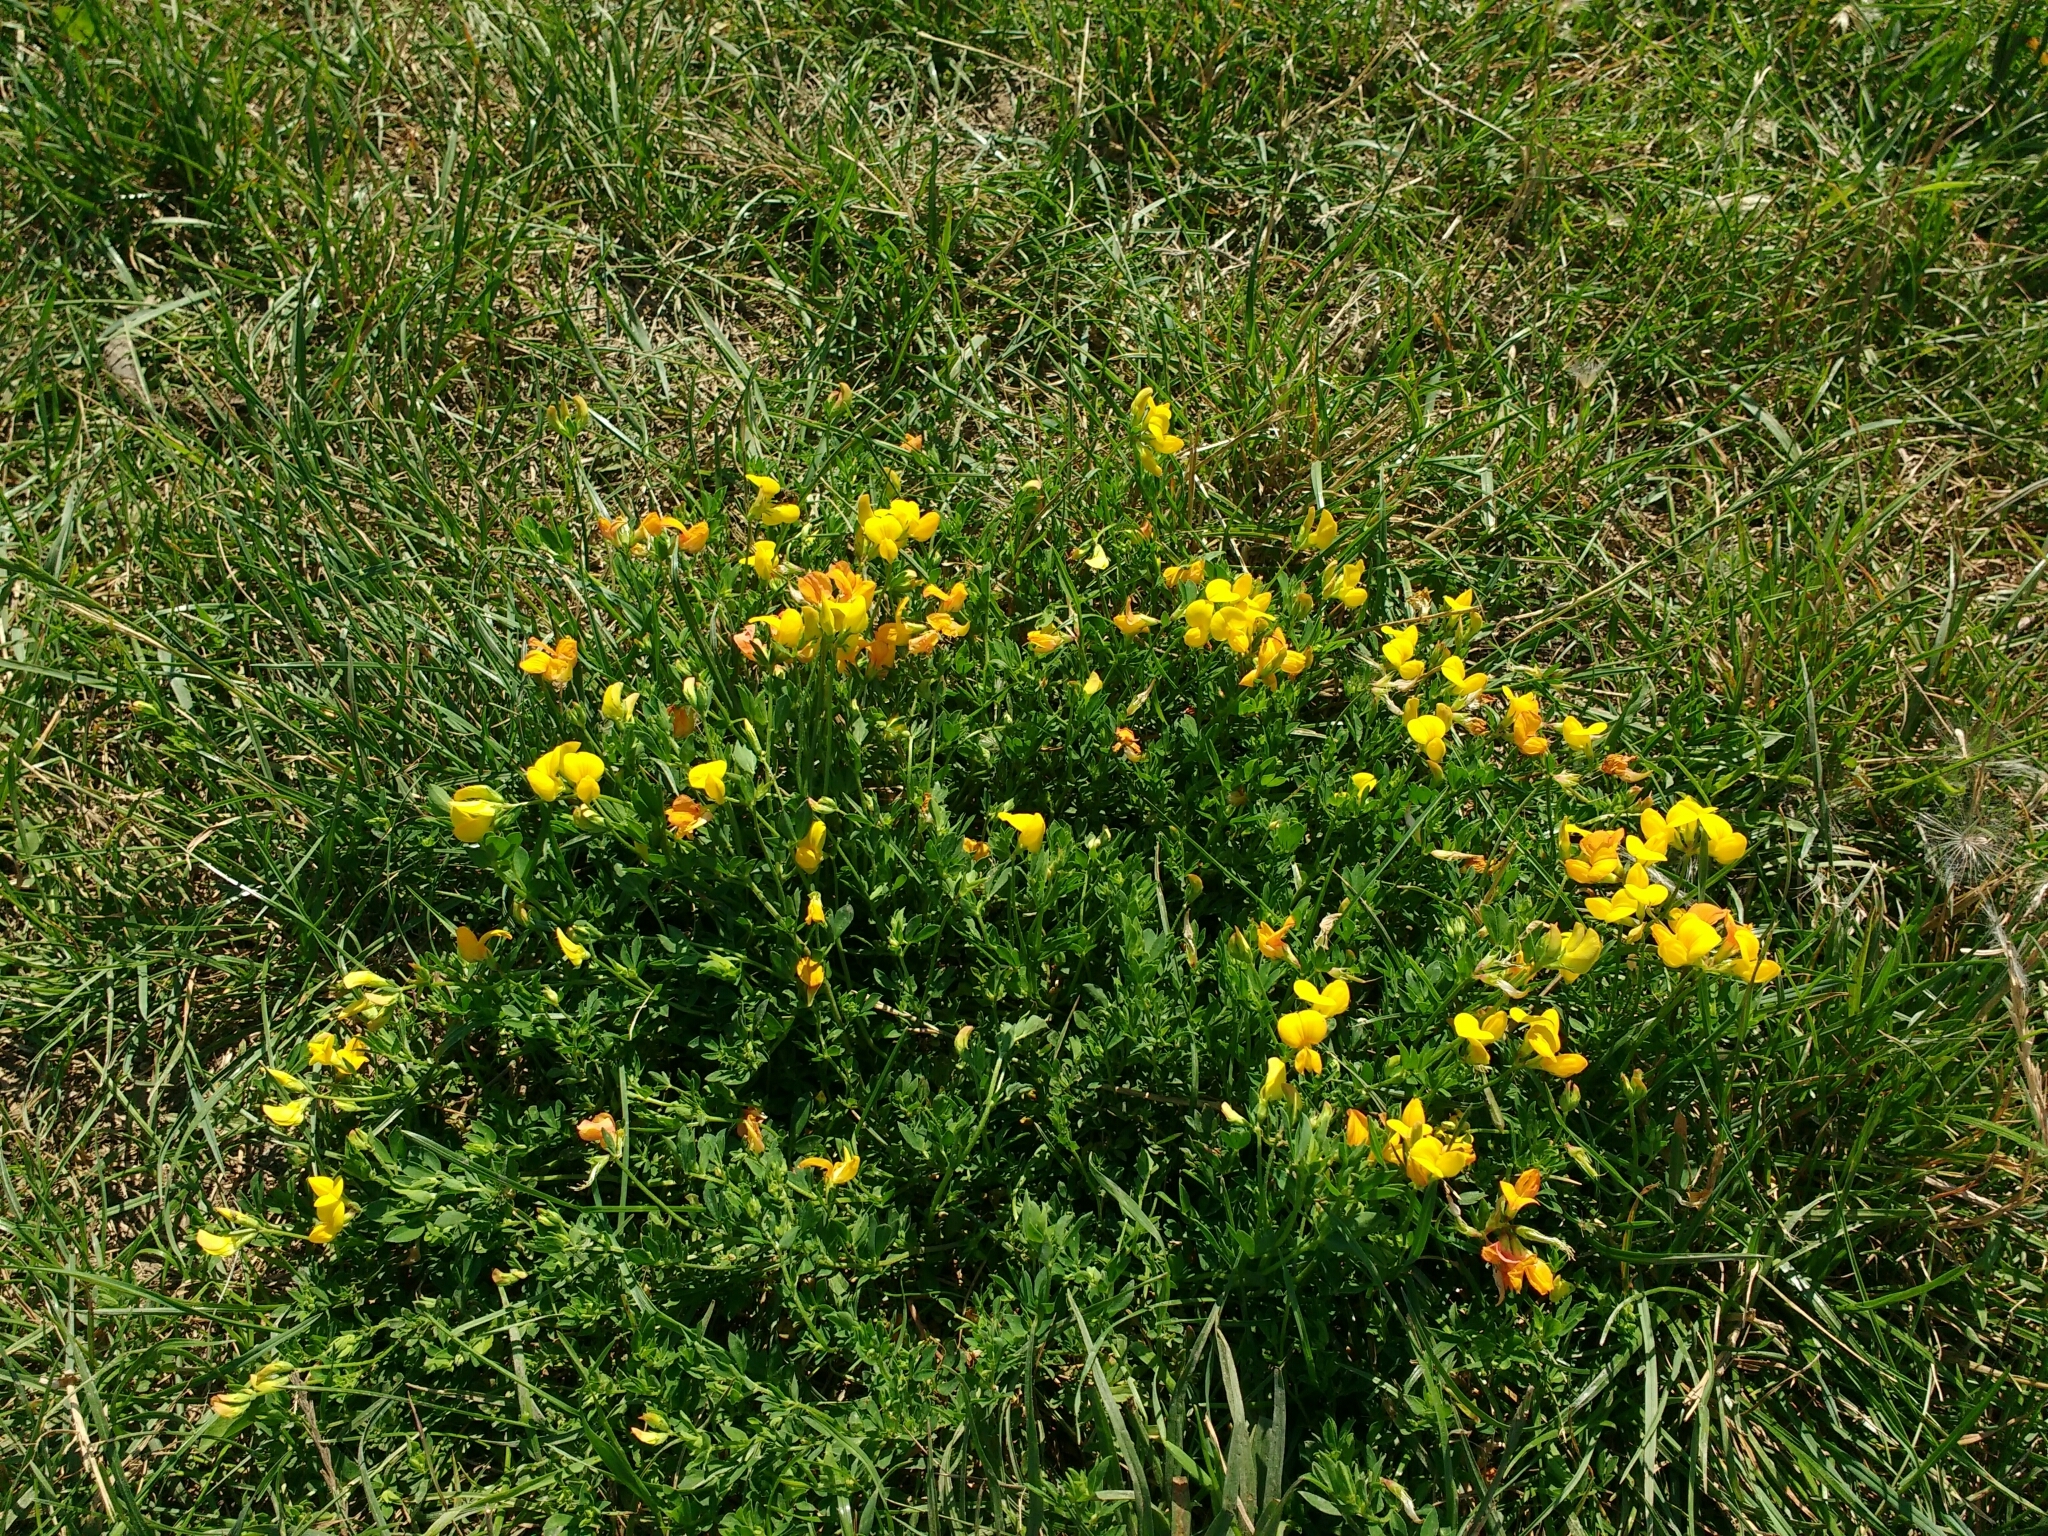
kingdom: Plantae
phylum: Tracheophyta
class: Magnoliopsida
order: Fabales
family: Fabaceae
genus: Lotus
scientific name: Lotus corniculatus
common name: Common bird's-foot-trefoil
